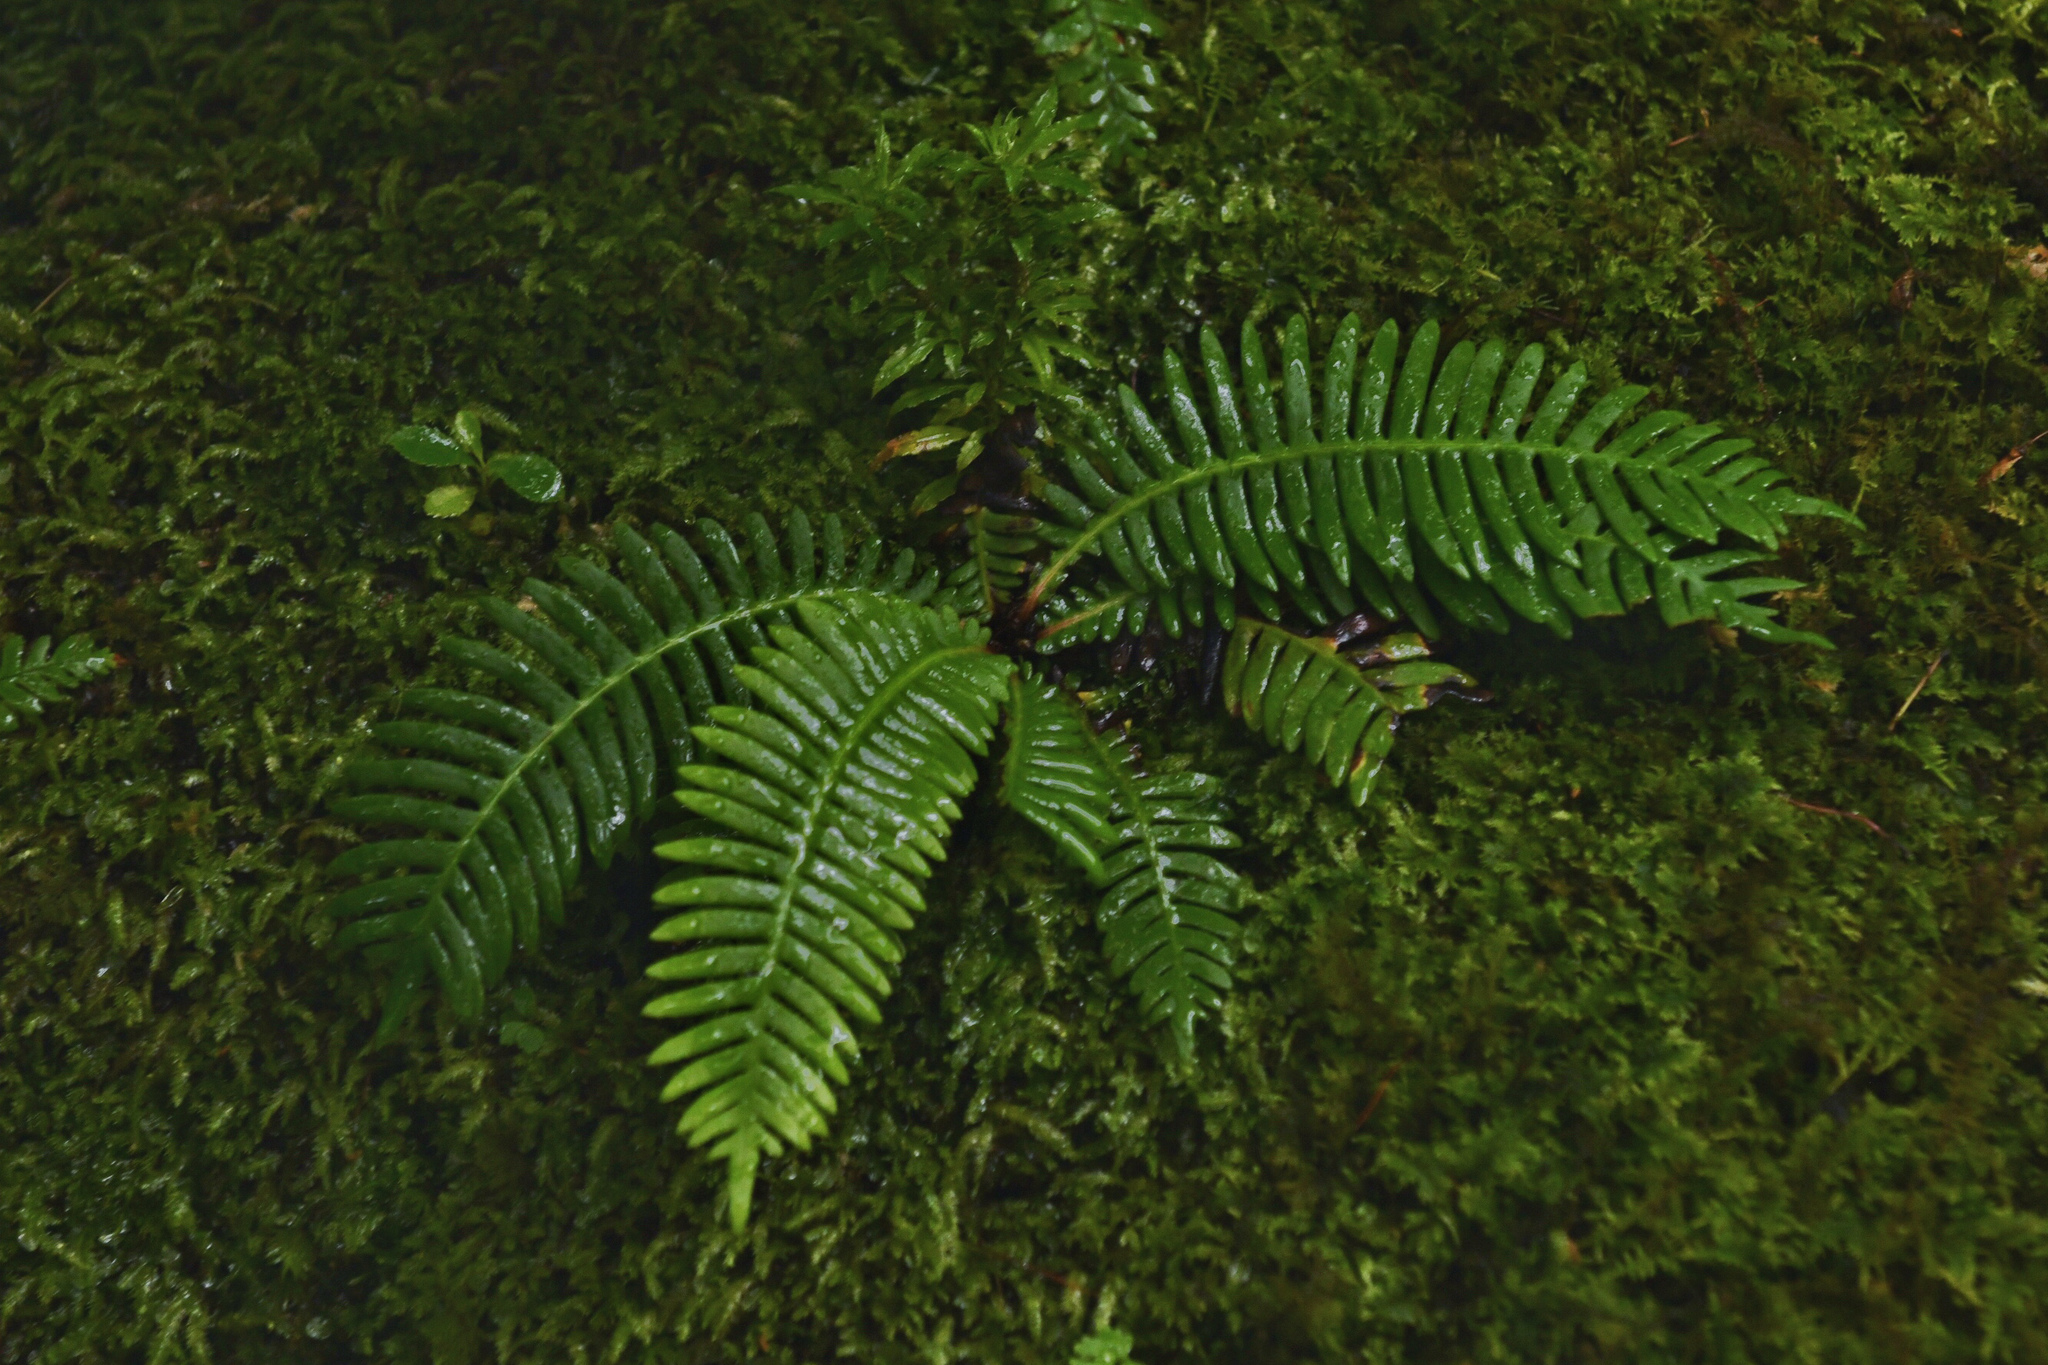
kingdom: Plantae
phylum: Tracheophyta
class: Polypodiopsida
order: Polypodiales
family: Blechnaceae
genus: Spicantopsis
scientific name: Spicantopsis niponica
